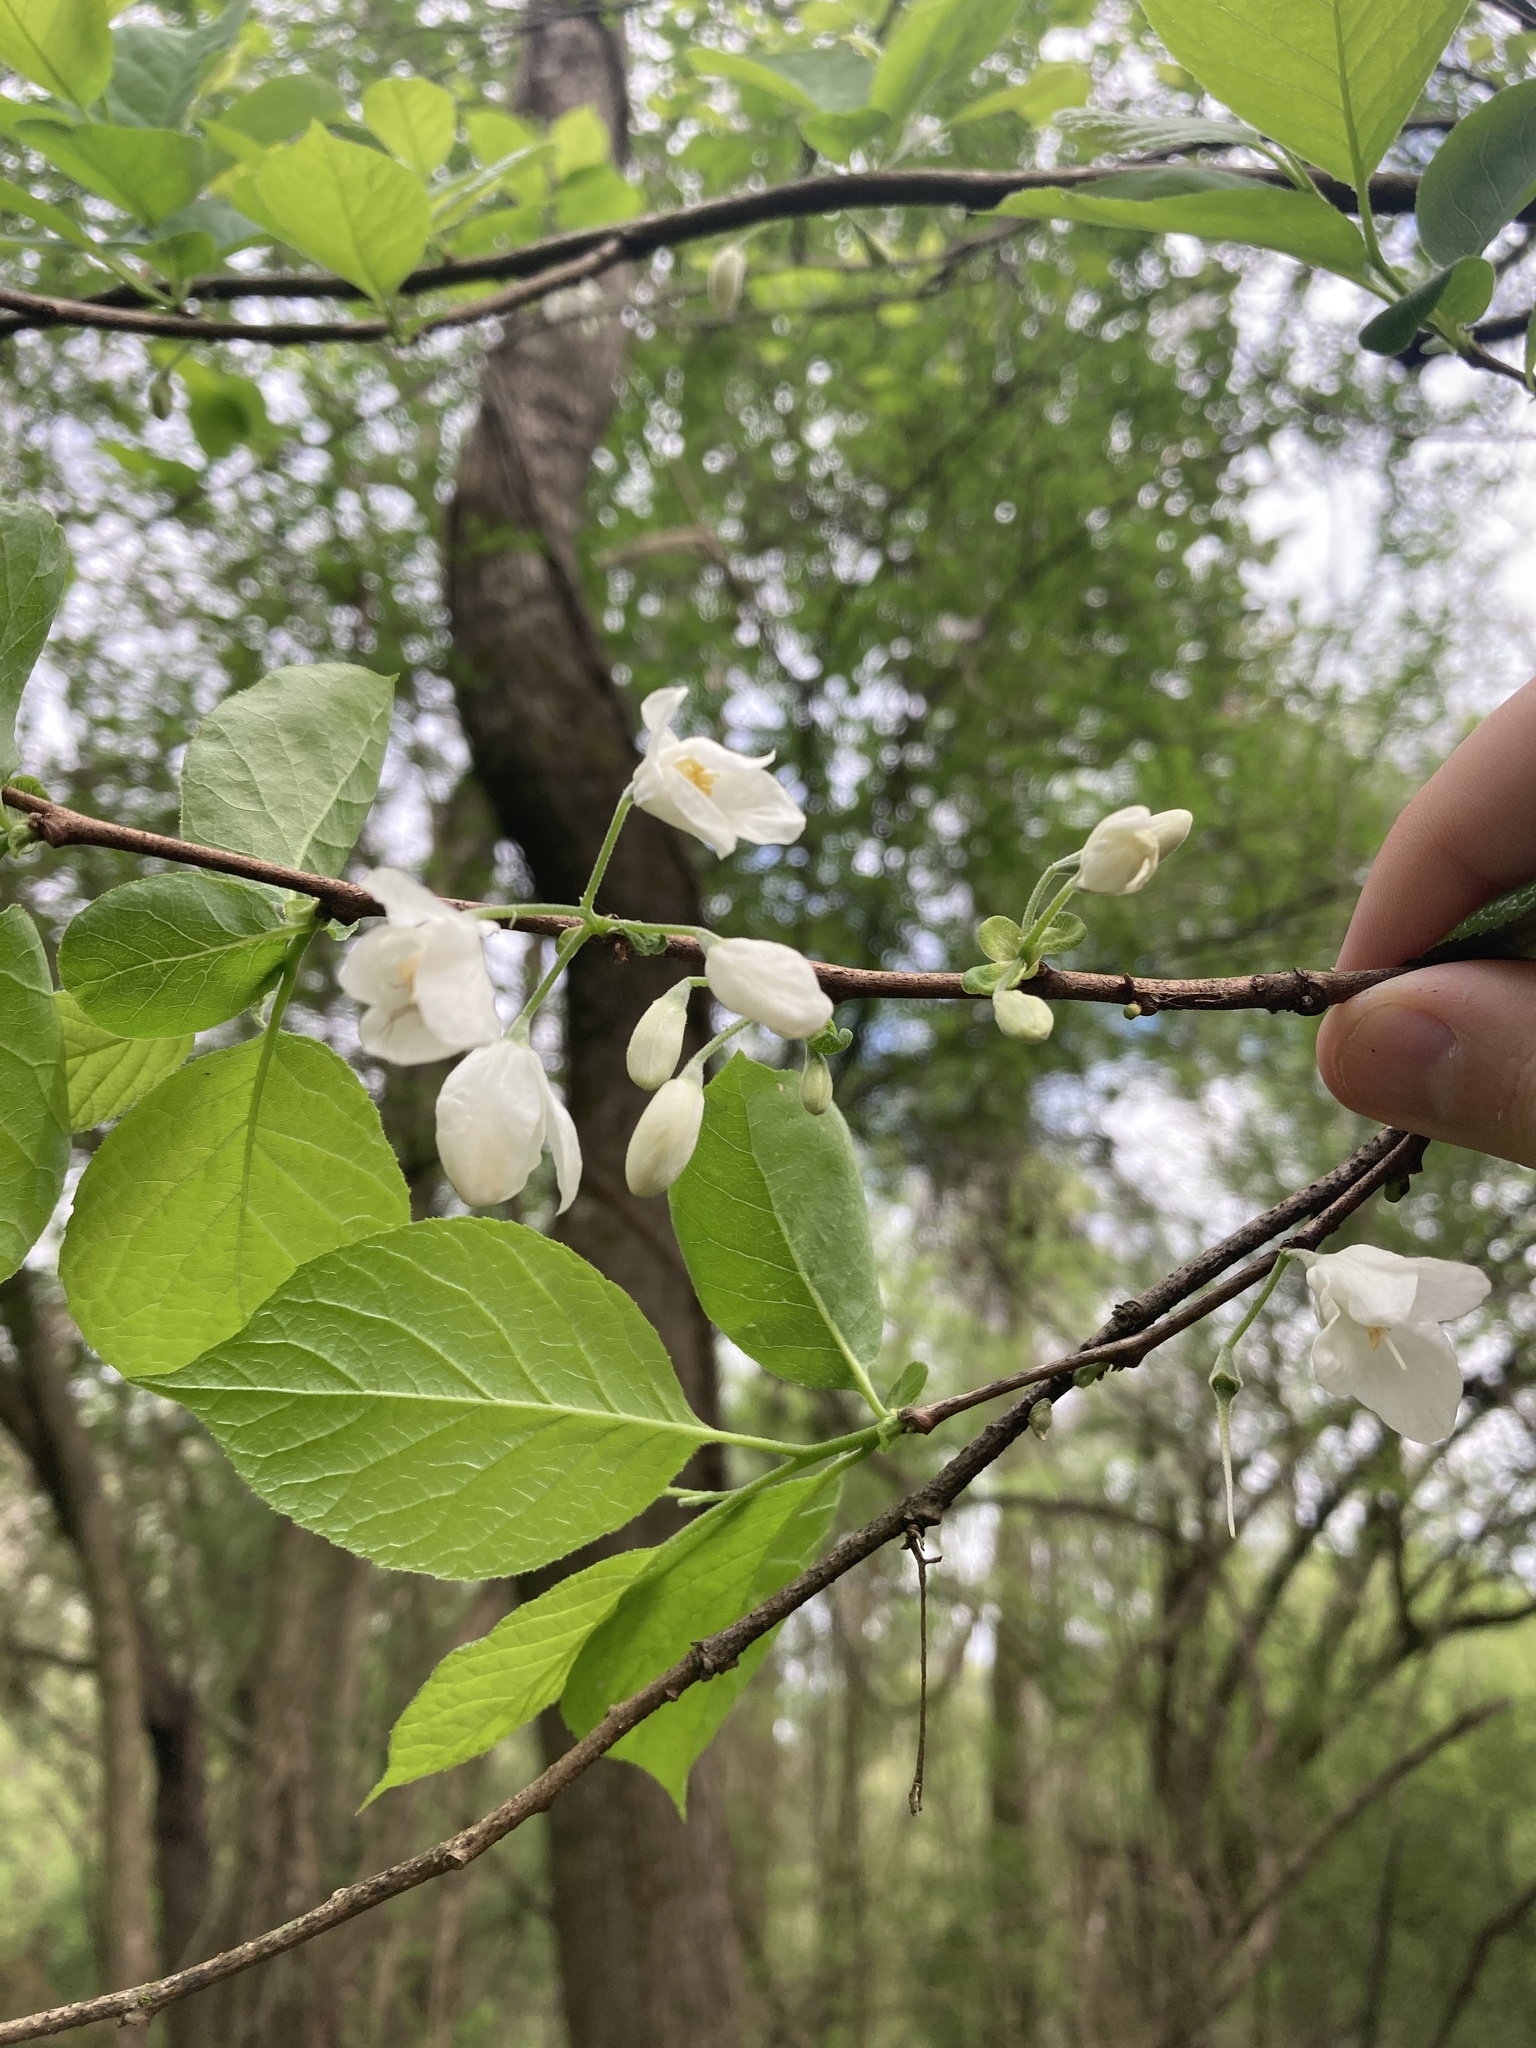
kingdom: Plantae
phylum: Tracheophyta
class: Magnoliopsida
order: Ericales
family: Styracaceae
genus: Halesia
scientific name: Halesia diptera
